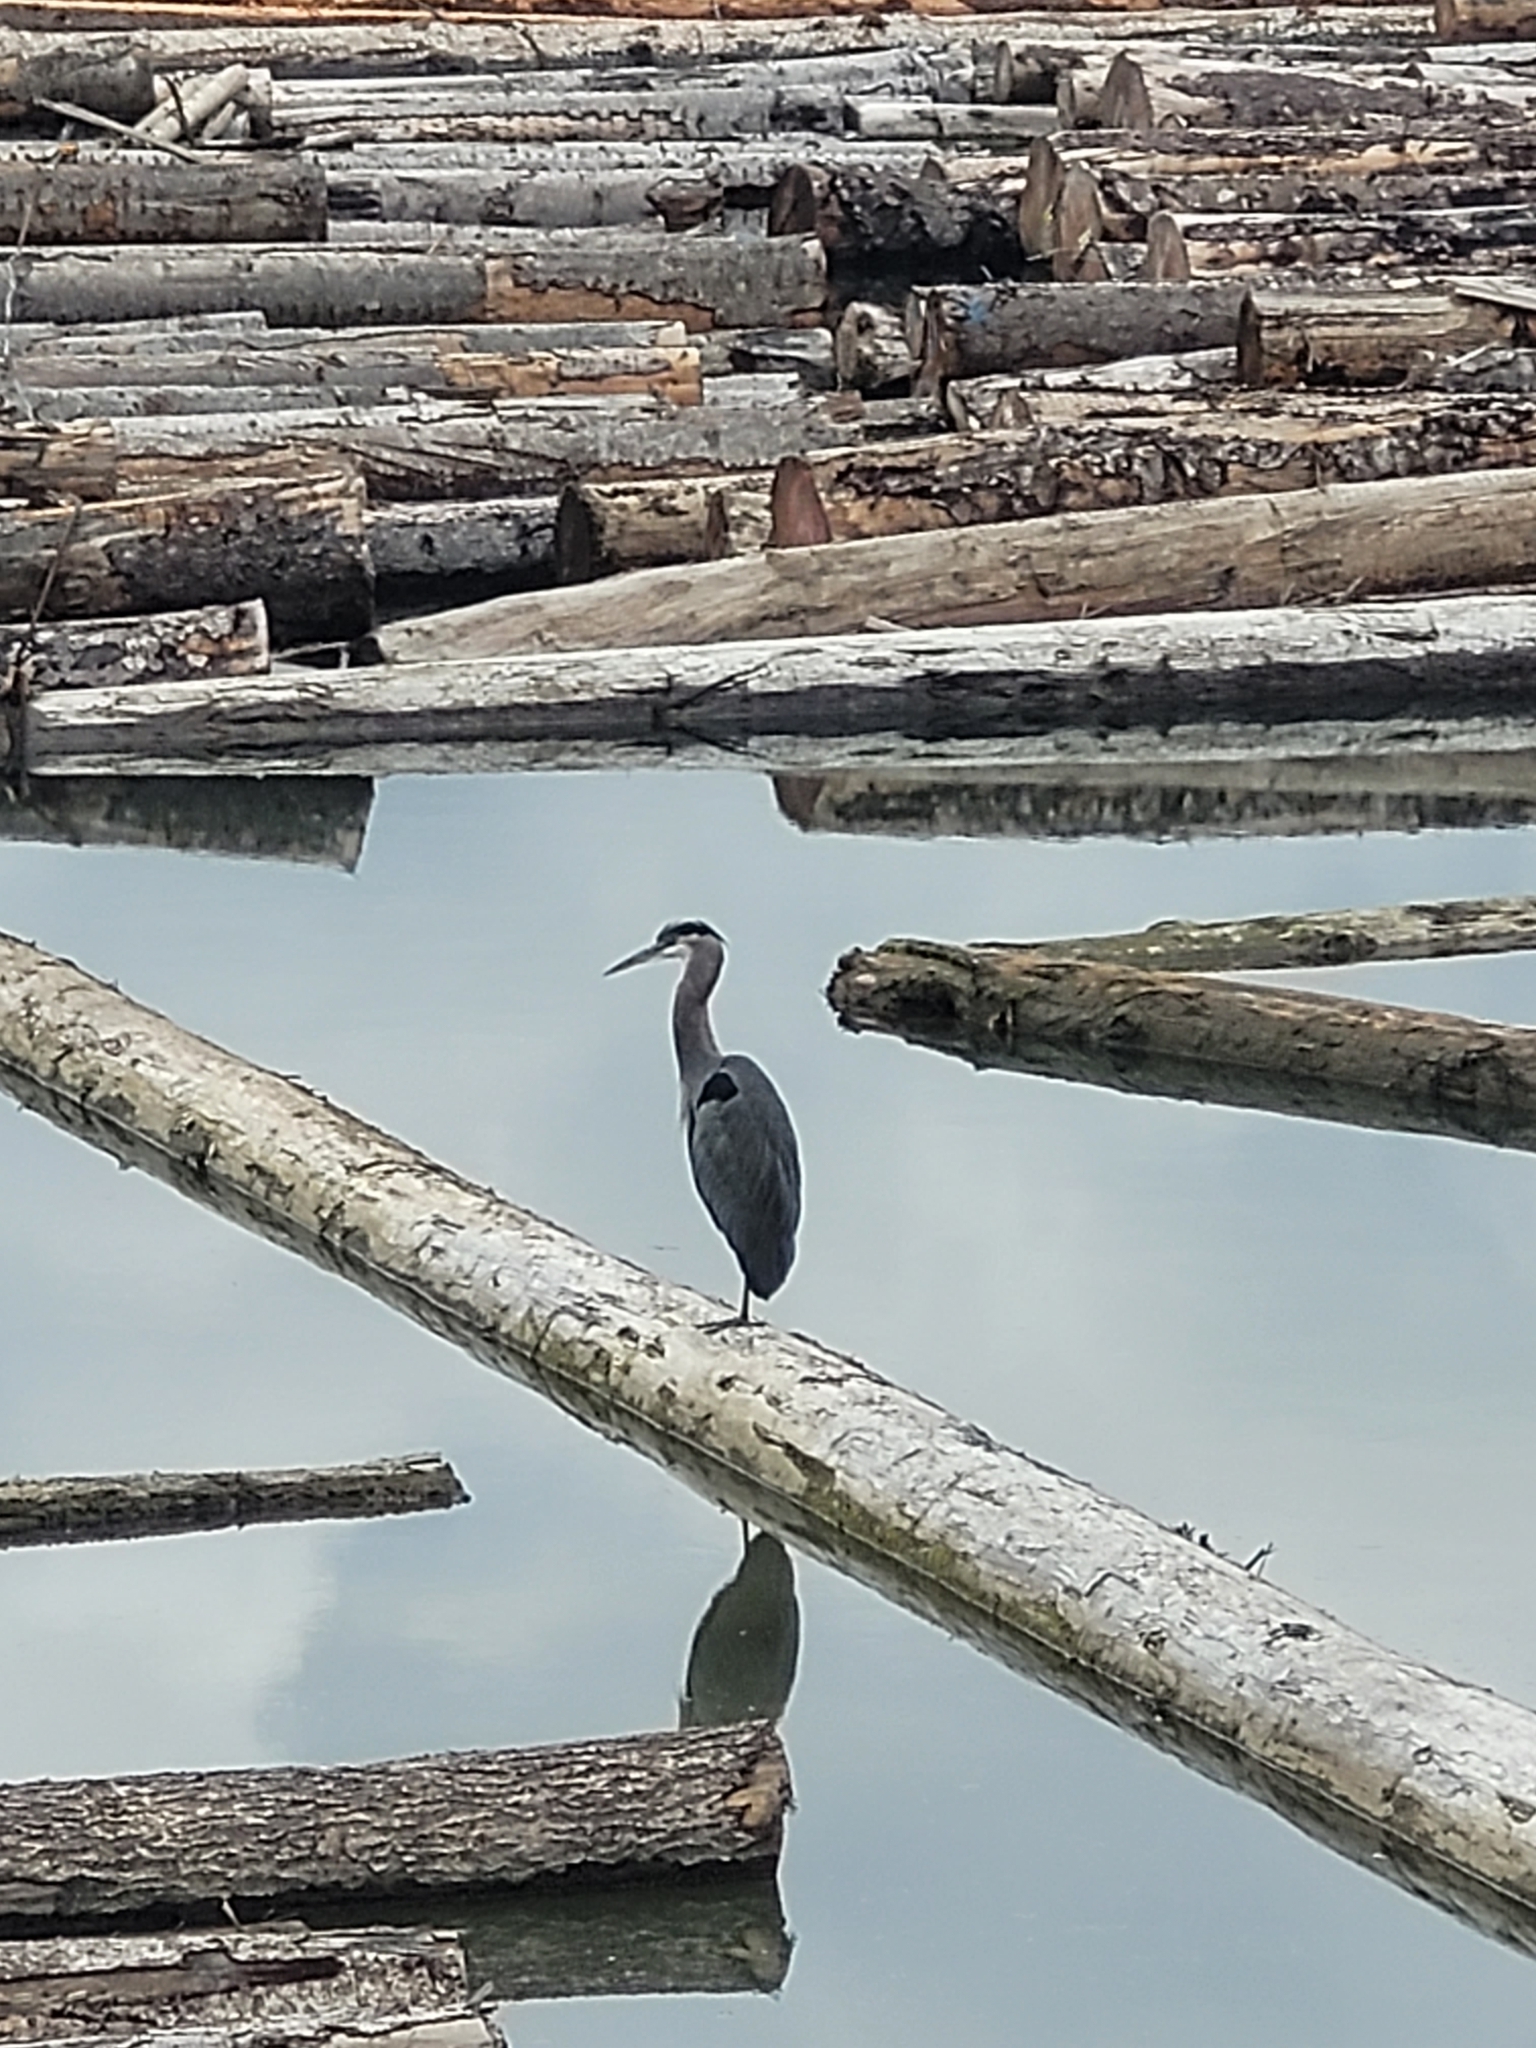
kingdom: Animalia
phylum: Chordata
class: Aves
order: Pelecaniformes
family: Ardeidae
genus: Ardea
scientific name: Ardea herodias
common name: Great blue heron
